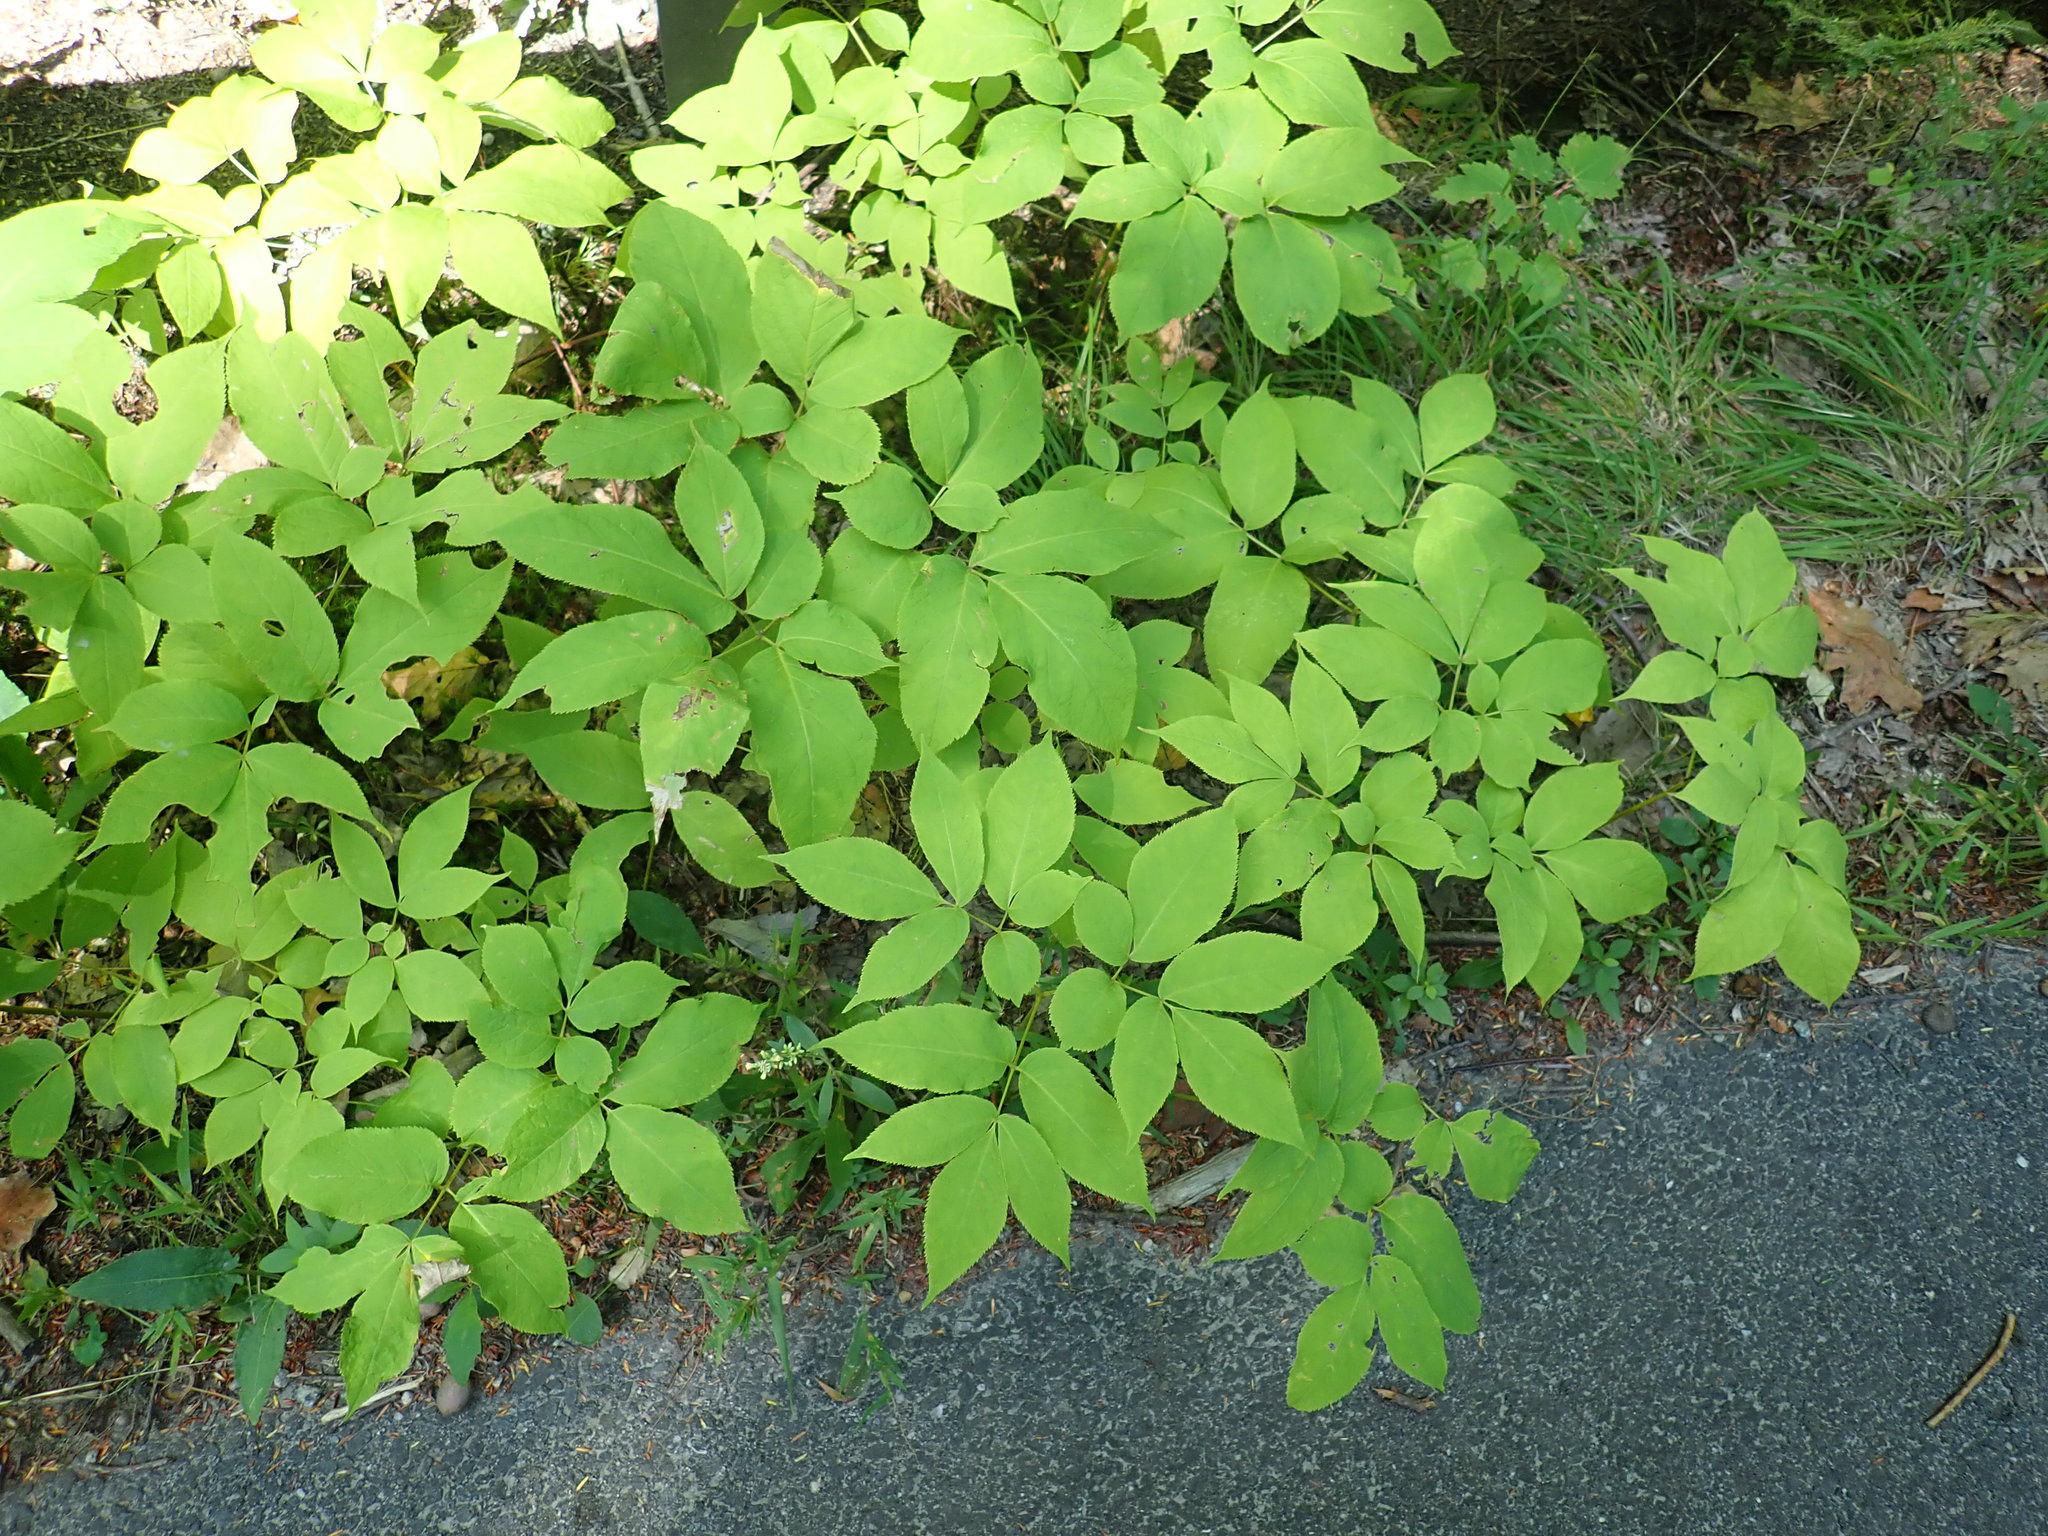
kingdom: Plantae
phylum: Tracheophyta
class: Magnoliopsida
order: Apiales
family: Araliaceae
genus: Aralia
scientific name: Aralia nudicaulis
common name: Wild sarsaparilla
